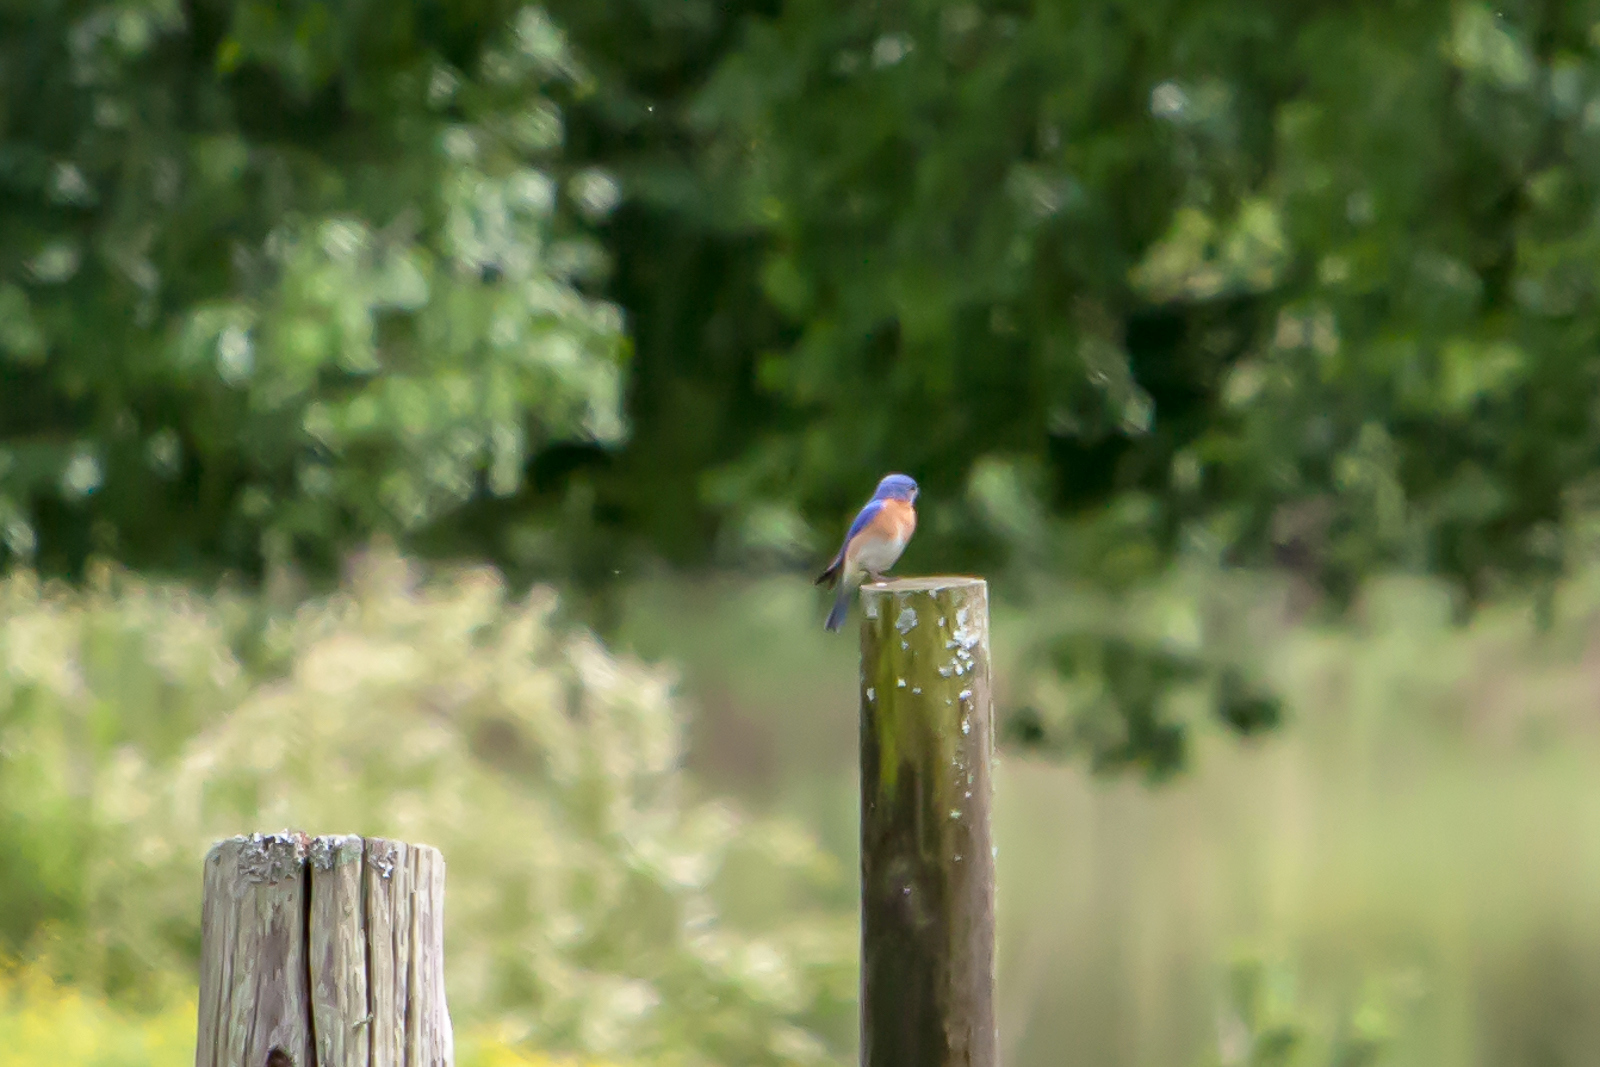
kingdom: Animalia
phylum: Chordata
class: Aves
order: Passeriformes
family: Turdidae
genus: Sialia
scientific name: Sialia sialis
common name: Eastern bluebird
